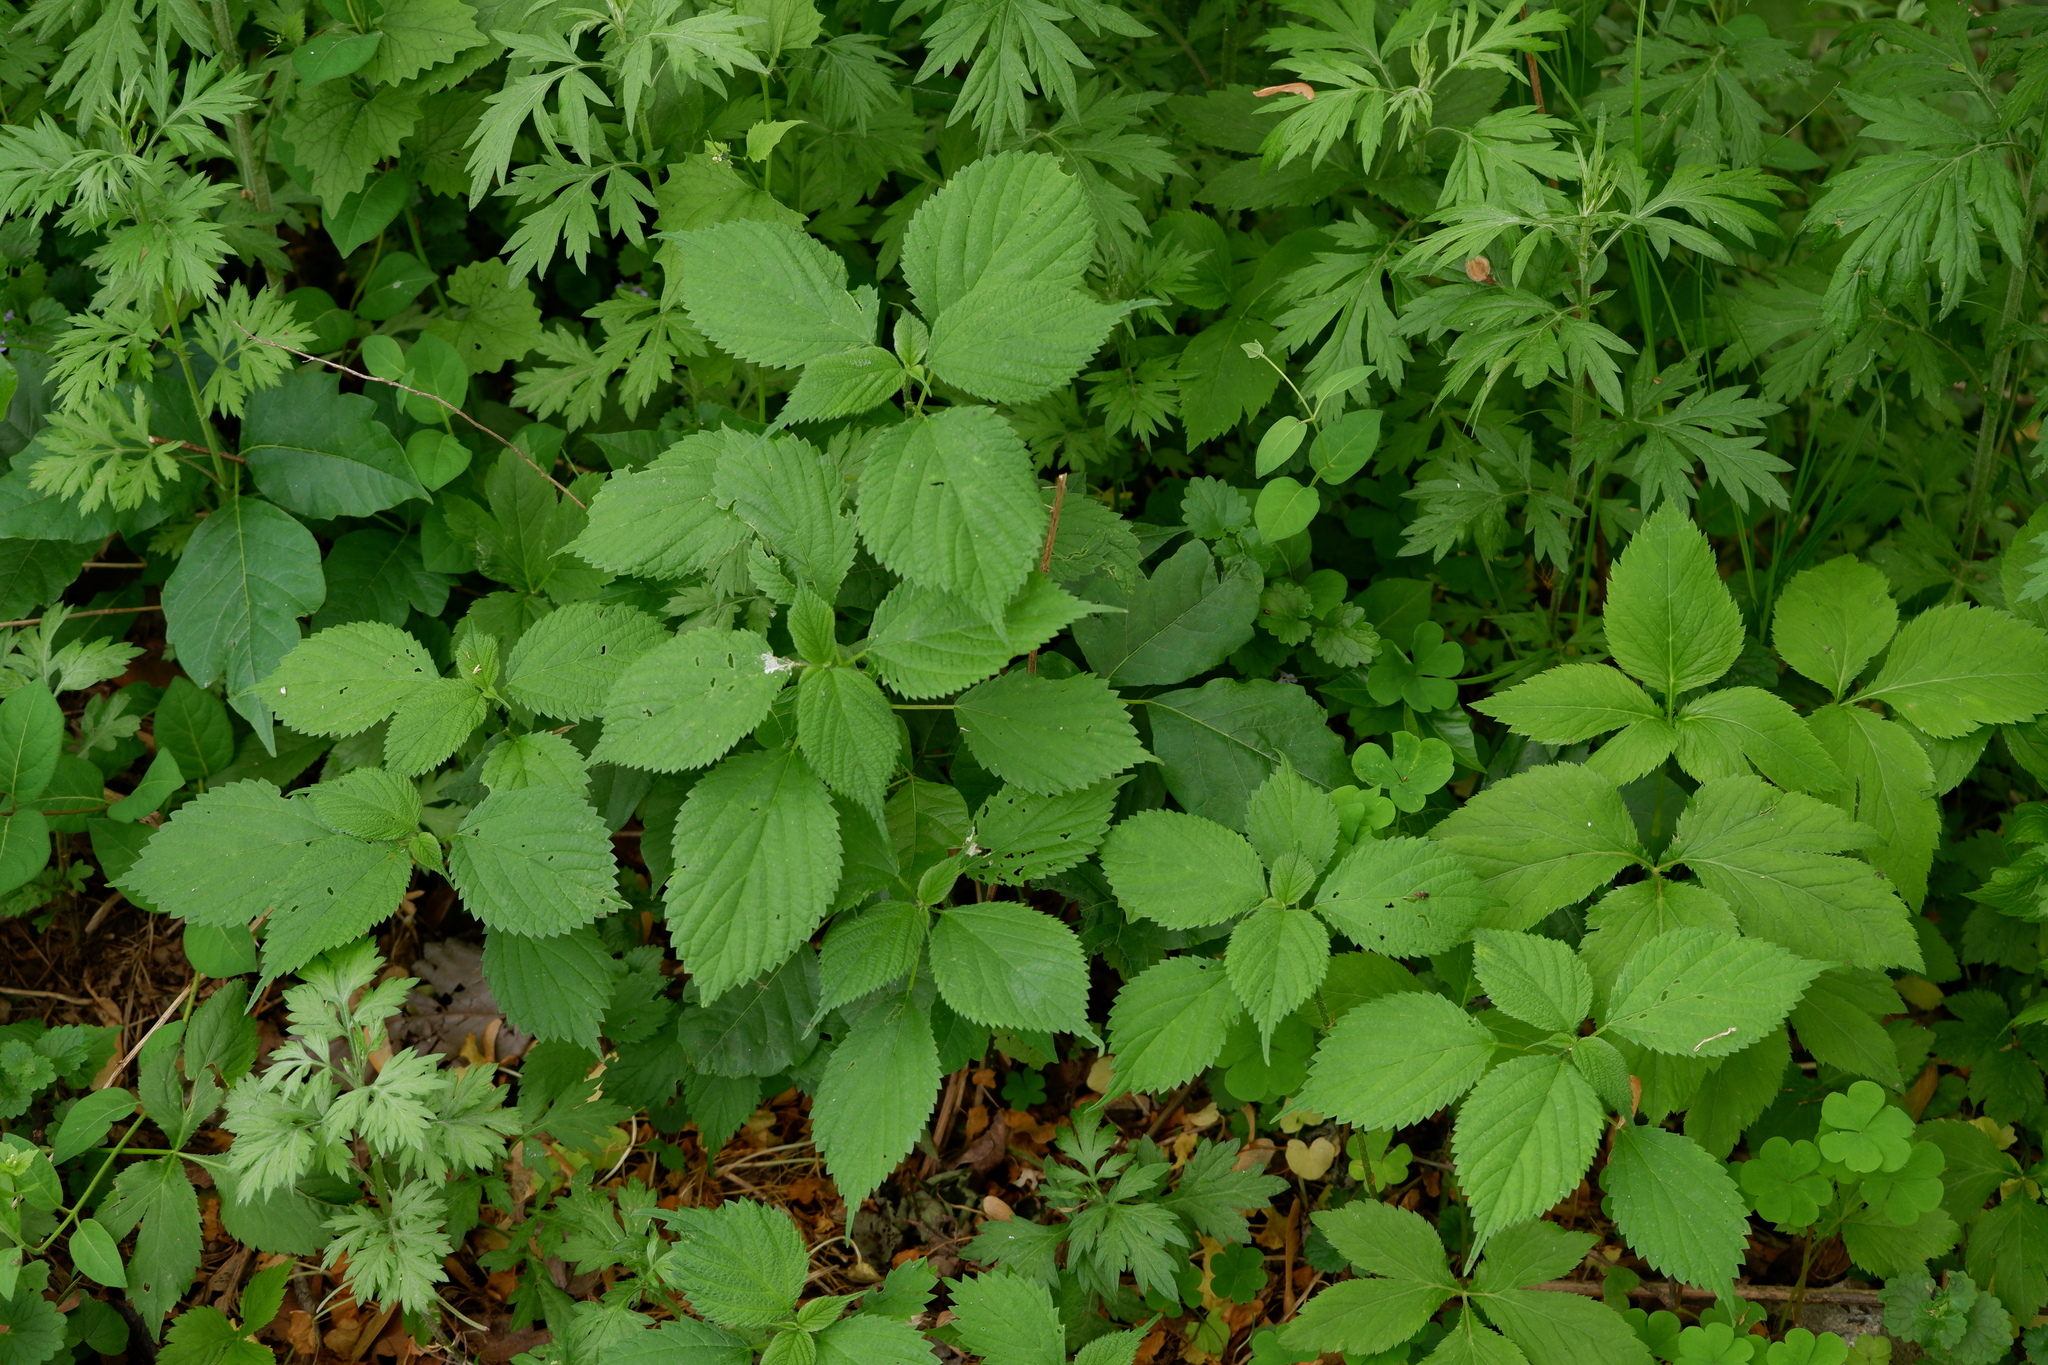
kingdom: Plantae
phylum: Tracheophyta
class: Magnoliopsida
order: Rosales
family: Urticaceae
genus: Laportea
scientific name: Laportea canadensis
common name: Canada nettle
